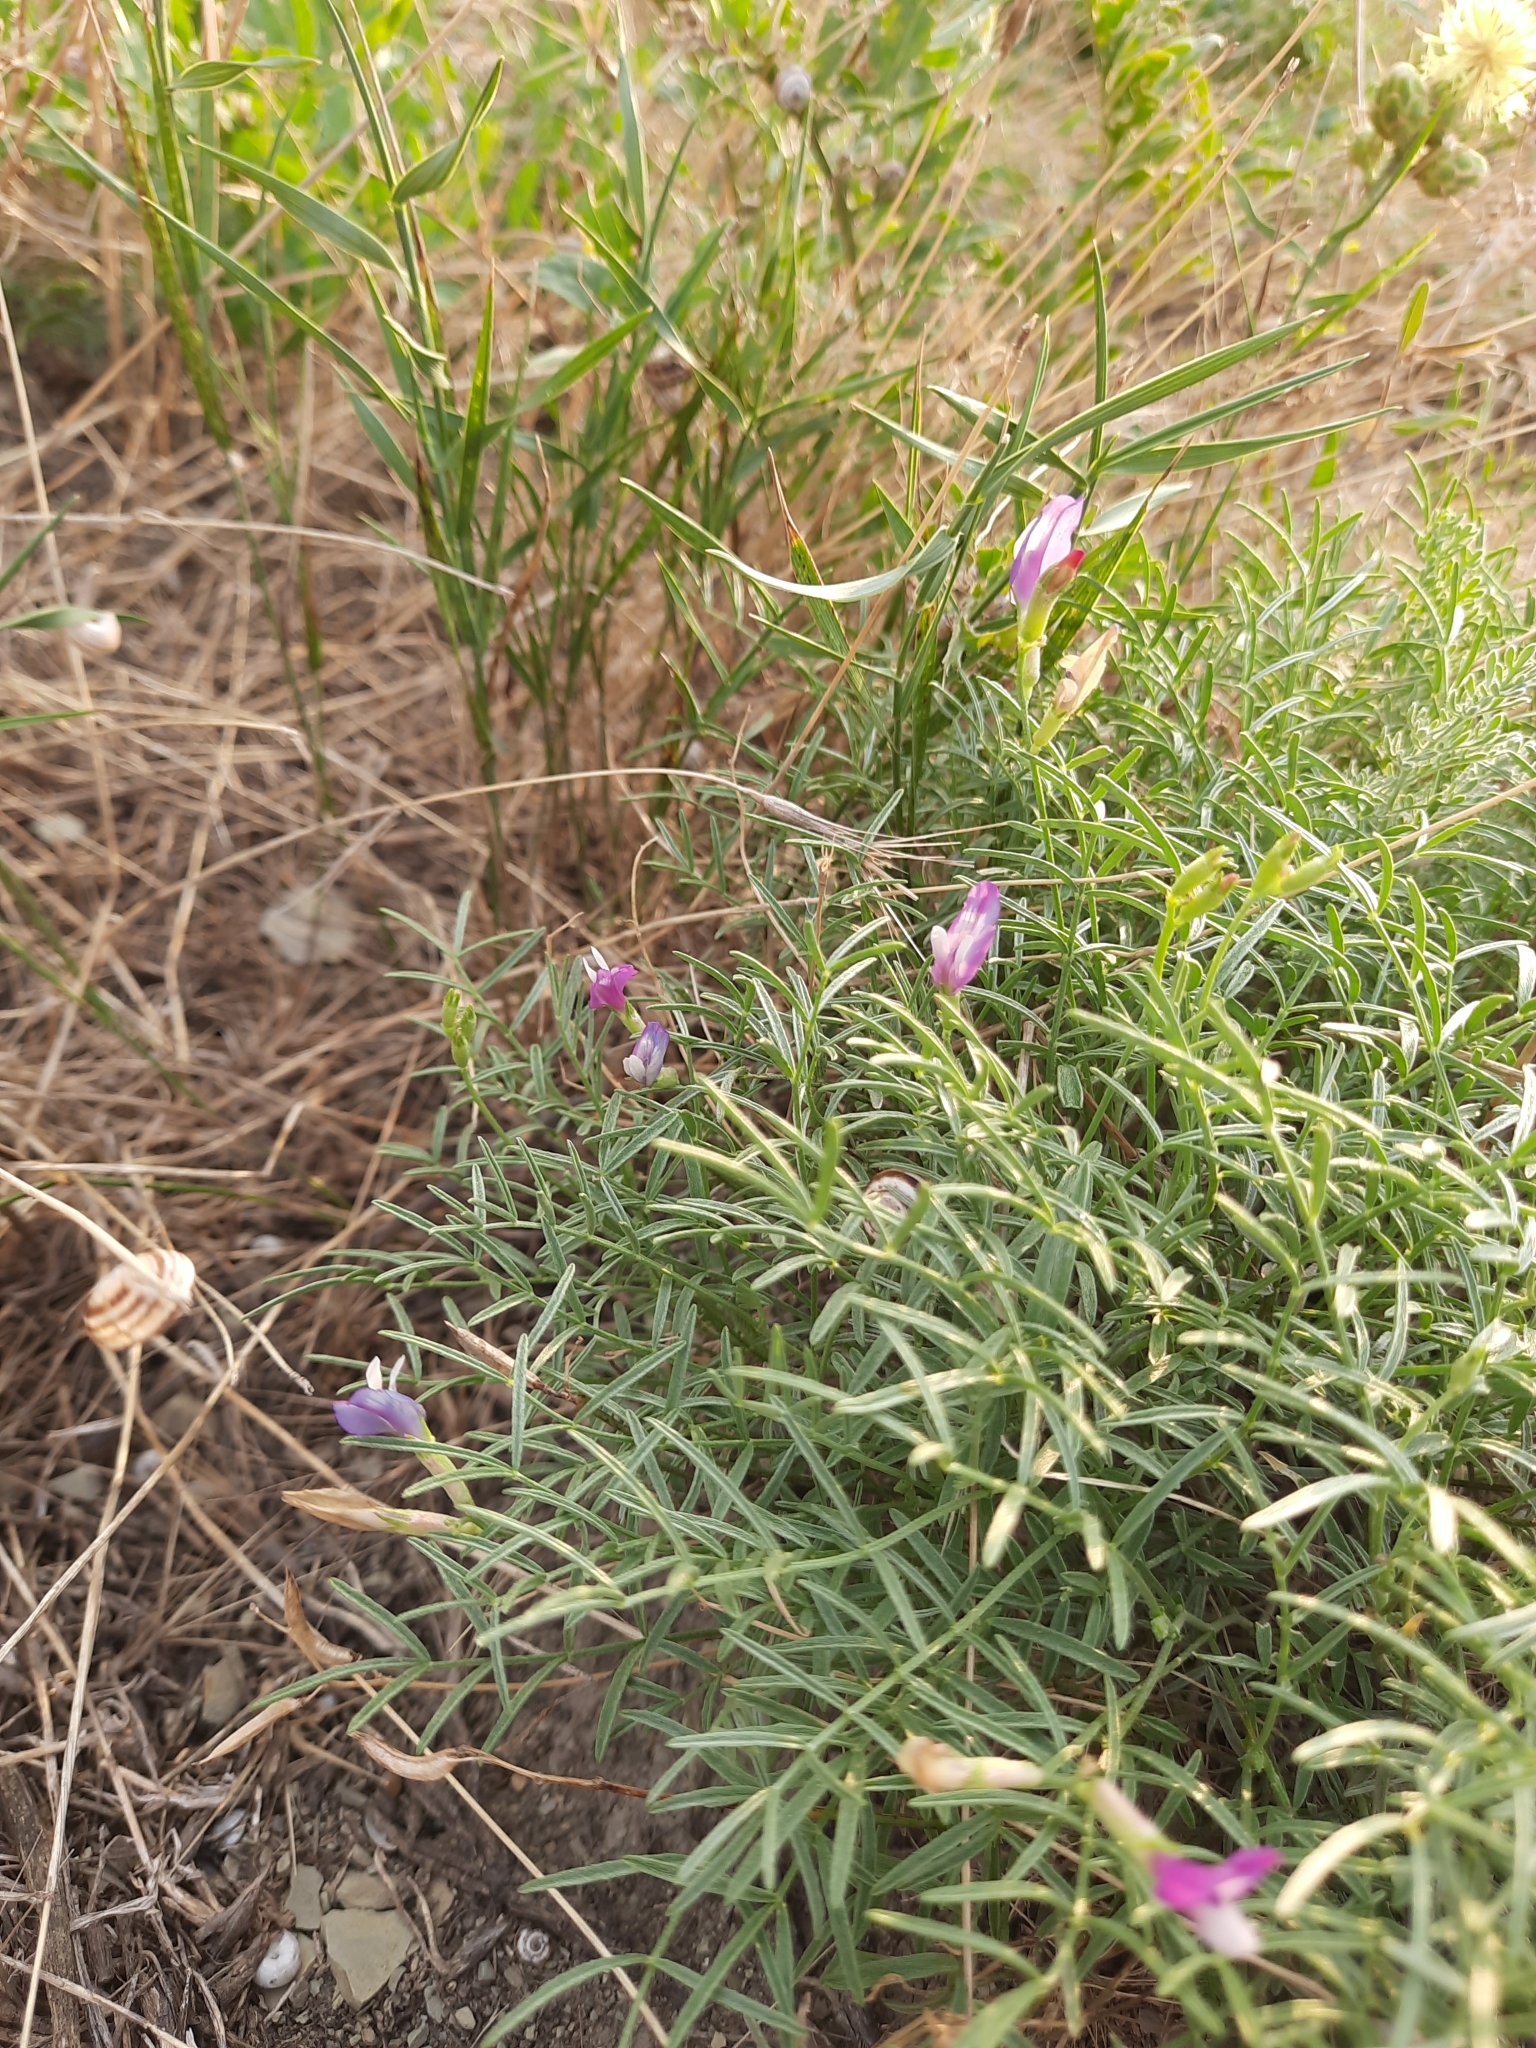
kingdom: Plantae
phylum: Tracheophyta
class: Magnoliopsida
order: Fabales
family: Fabaceae
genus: Astragalus
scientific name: Astragalus subuliformis
